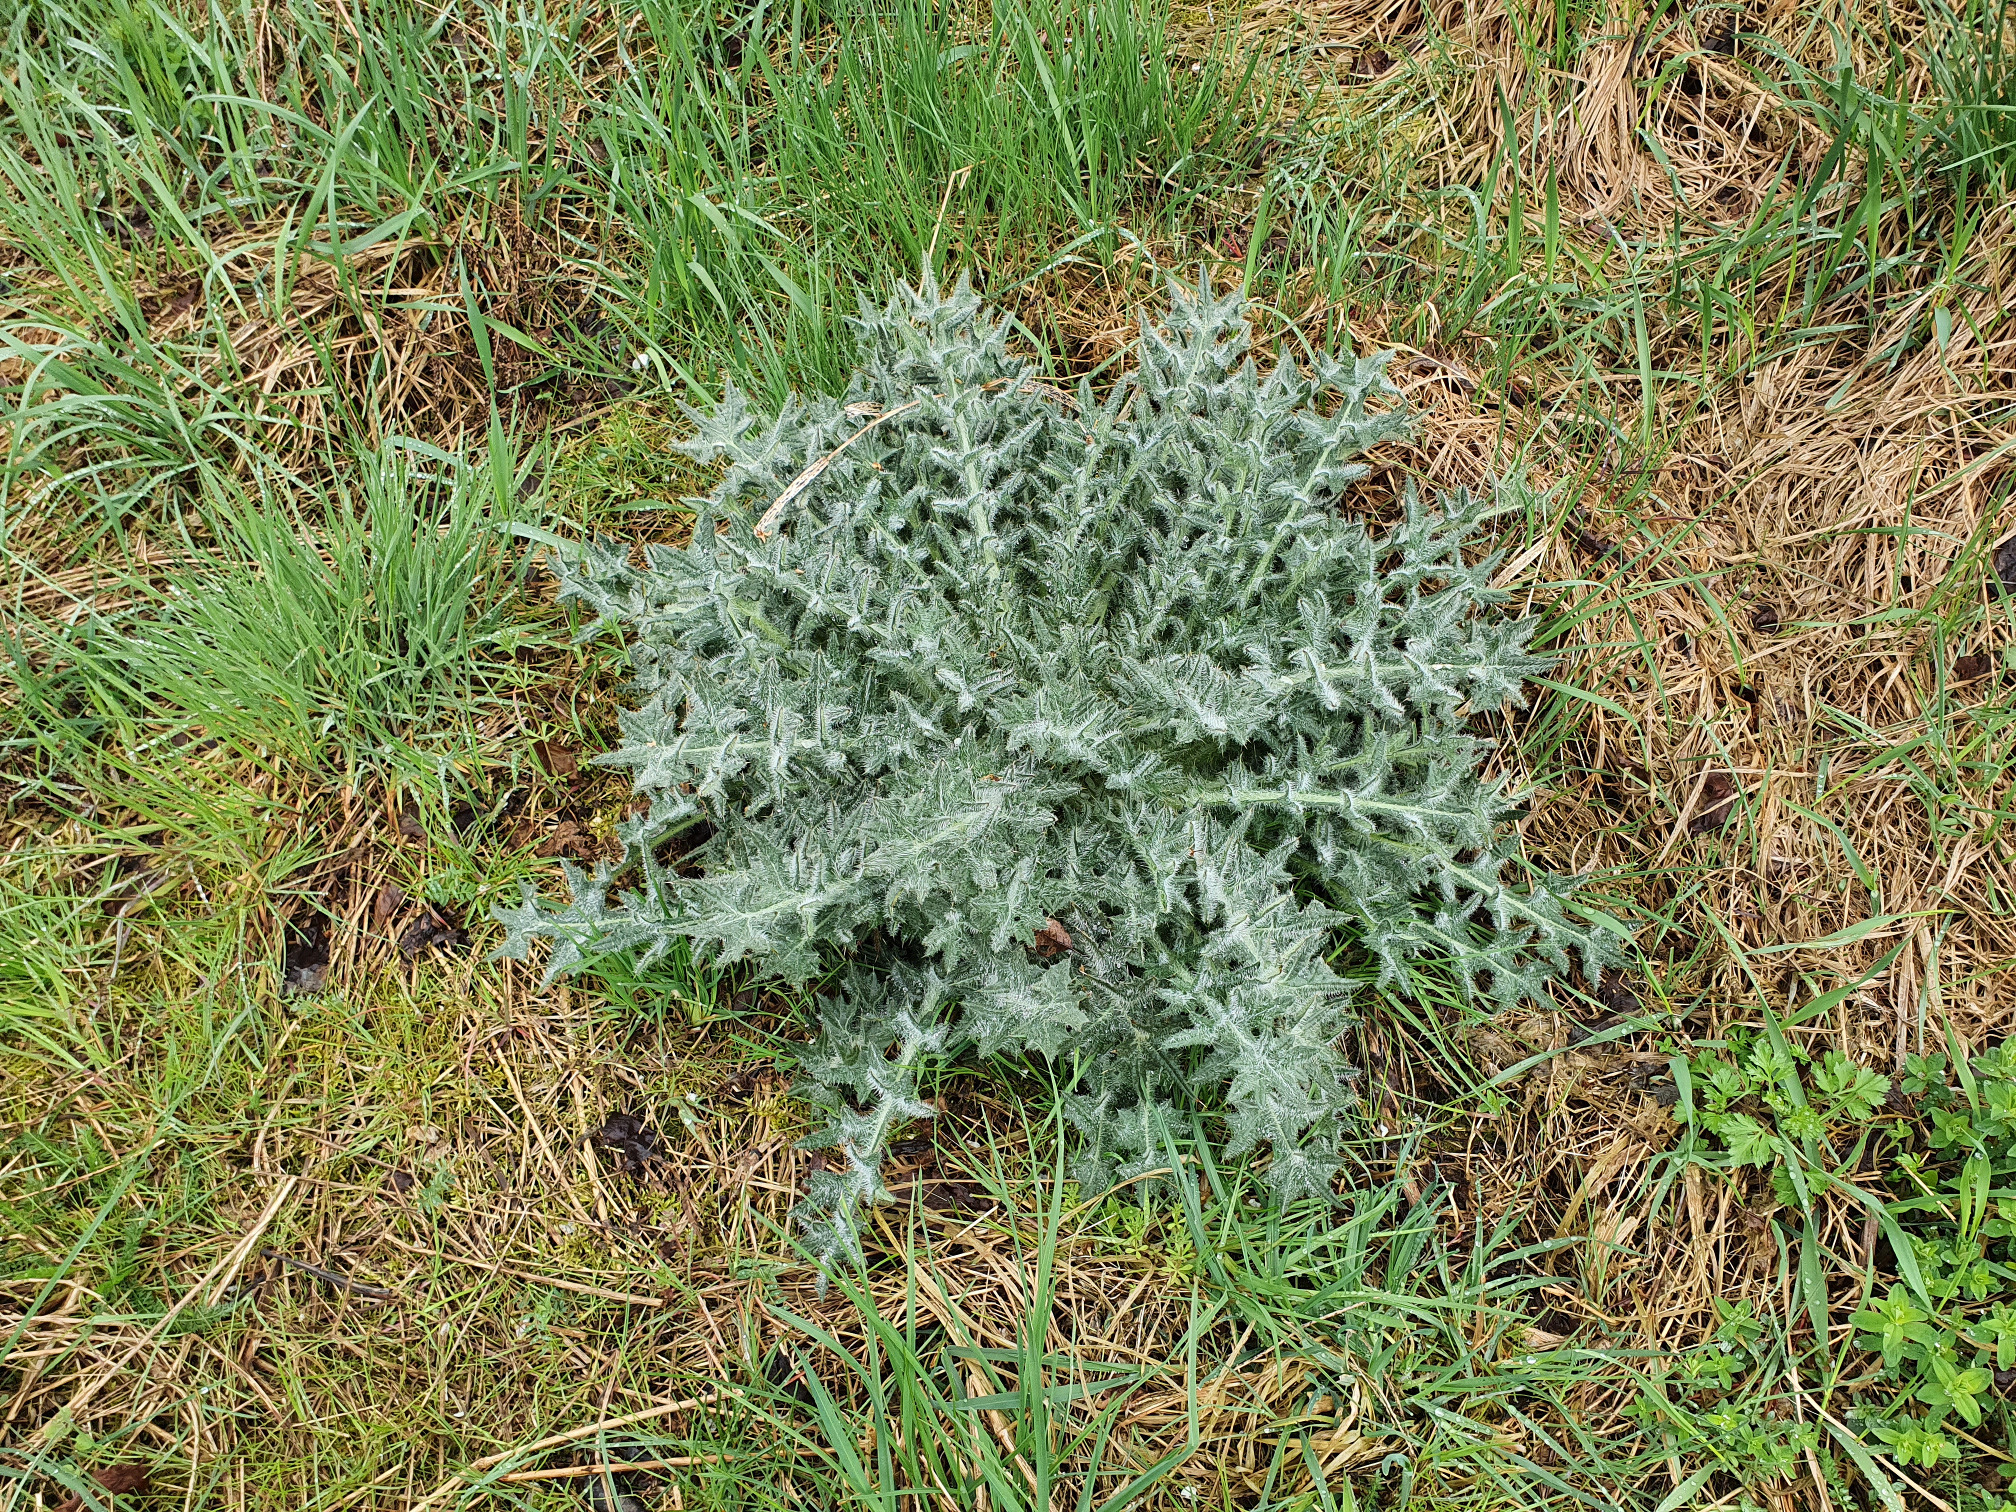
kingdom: Plantae
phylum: Tracheophyta
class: Magnoliopsida
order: Asterales
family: Asteraceae
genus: Cirsium
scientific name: Cirsium vulgare
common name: Bull thistle
